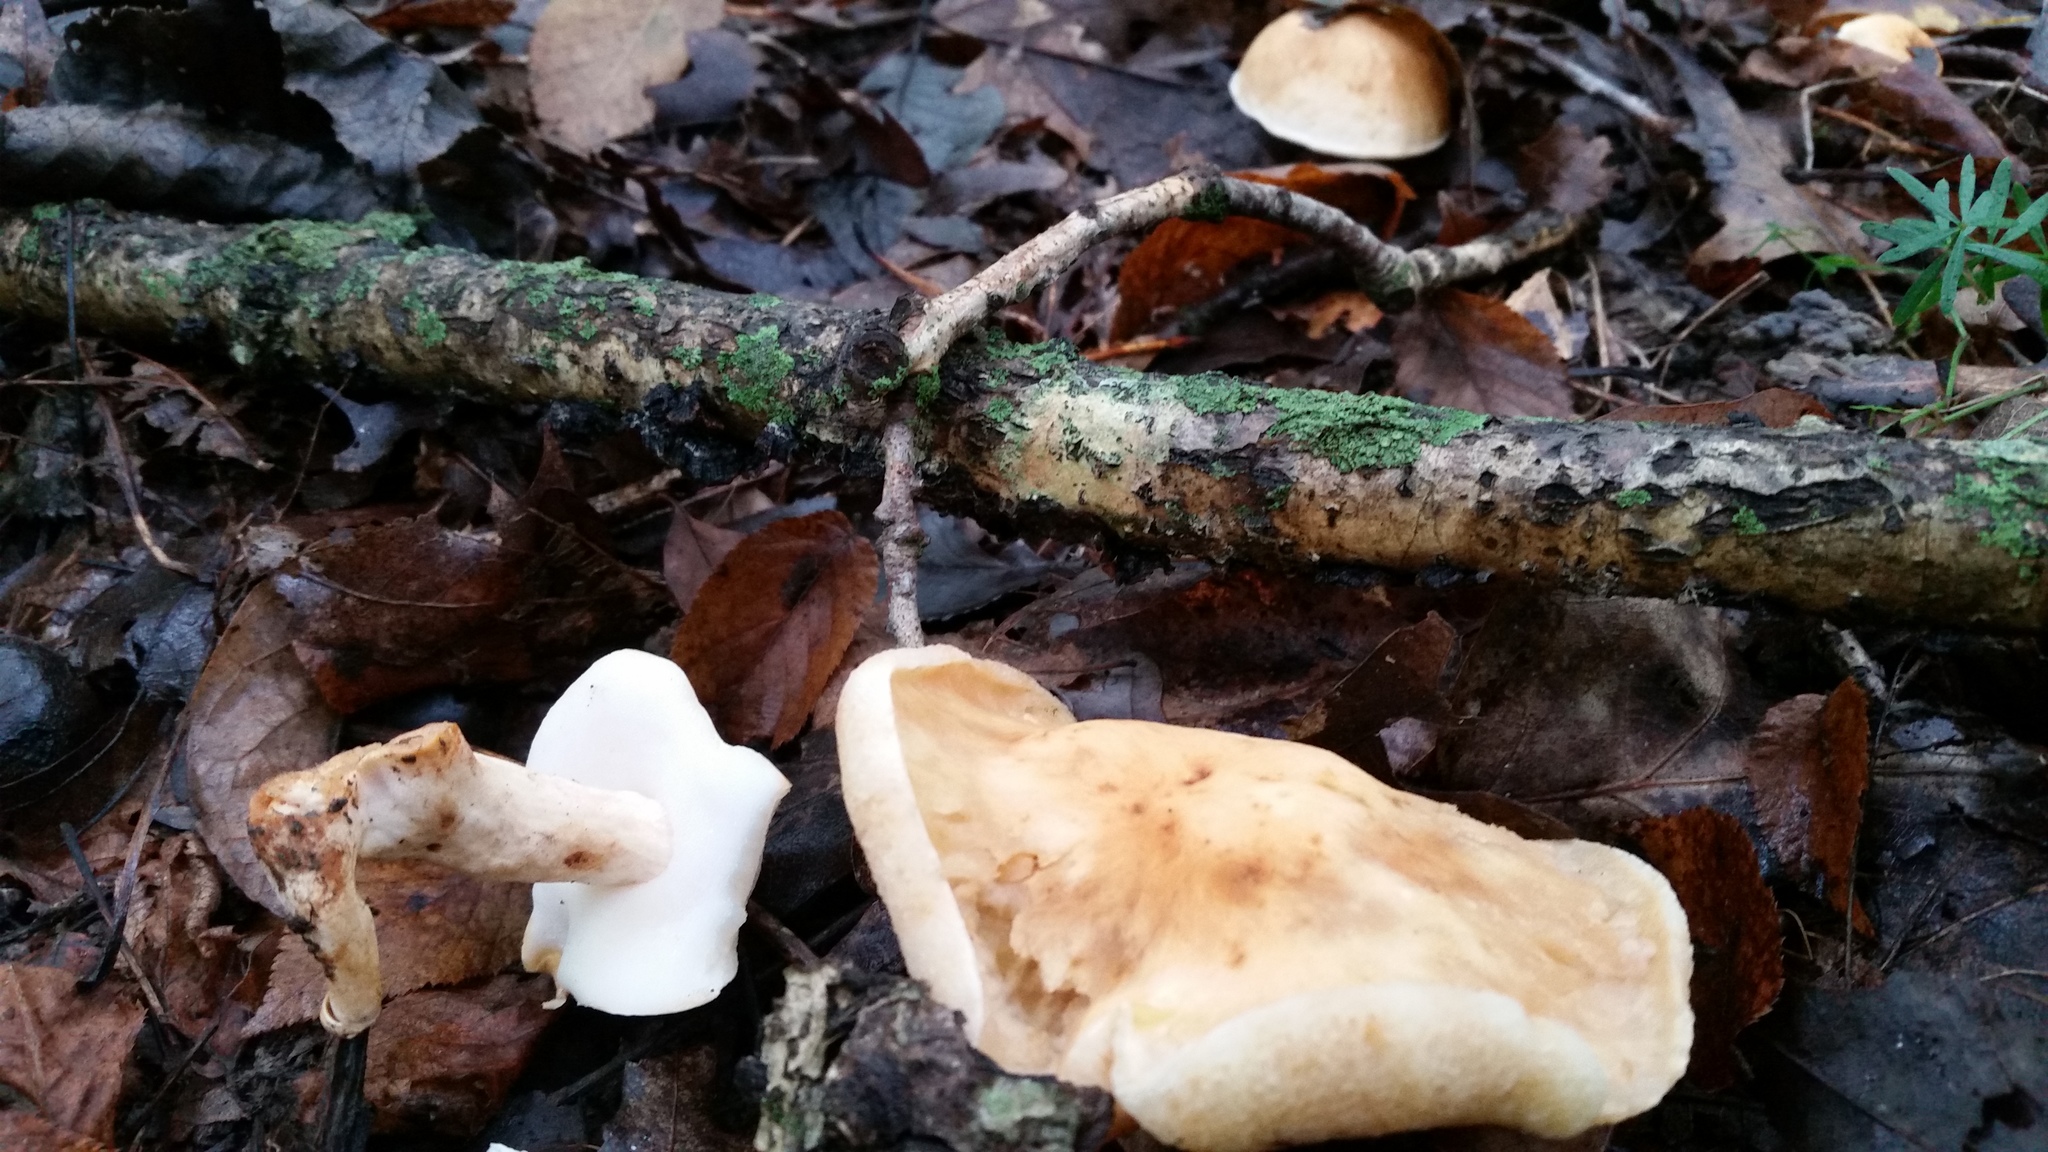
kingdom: Fungi
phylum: Basidiomycota
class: Agaricomycetes
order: Boletales
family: Gyroporaceae
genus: Gyroporus
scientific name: Gyroporus castaneus
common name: Chestnut bolete
